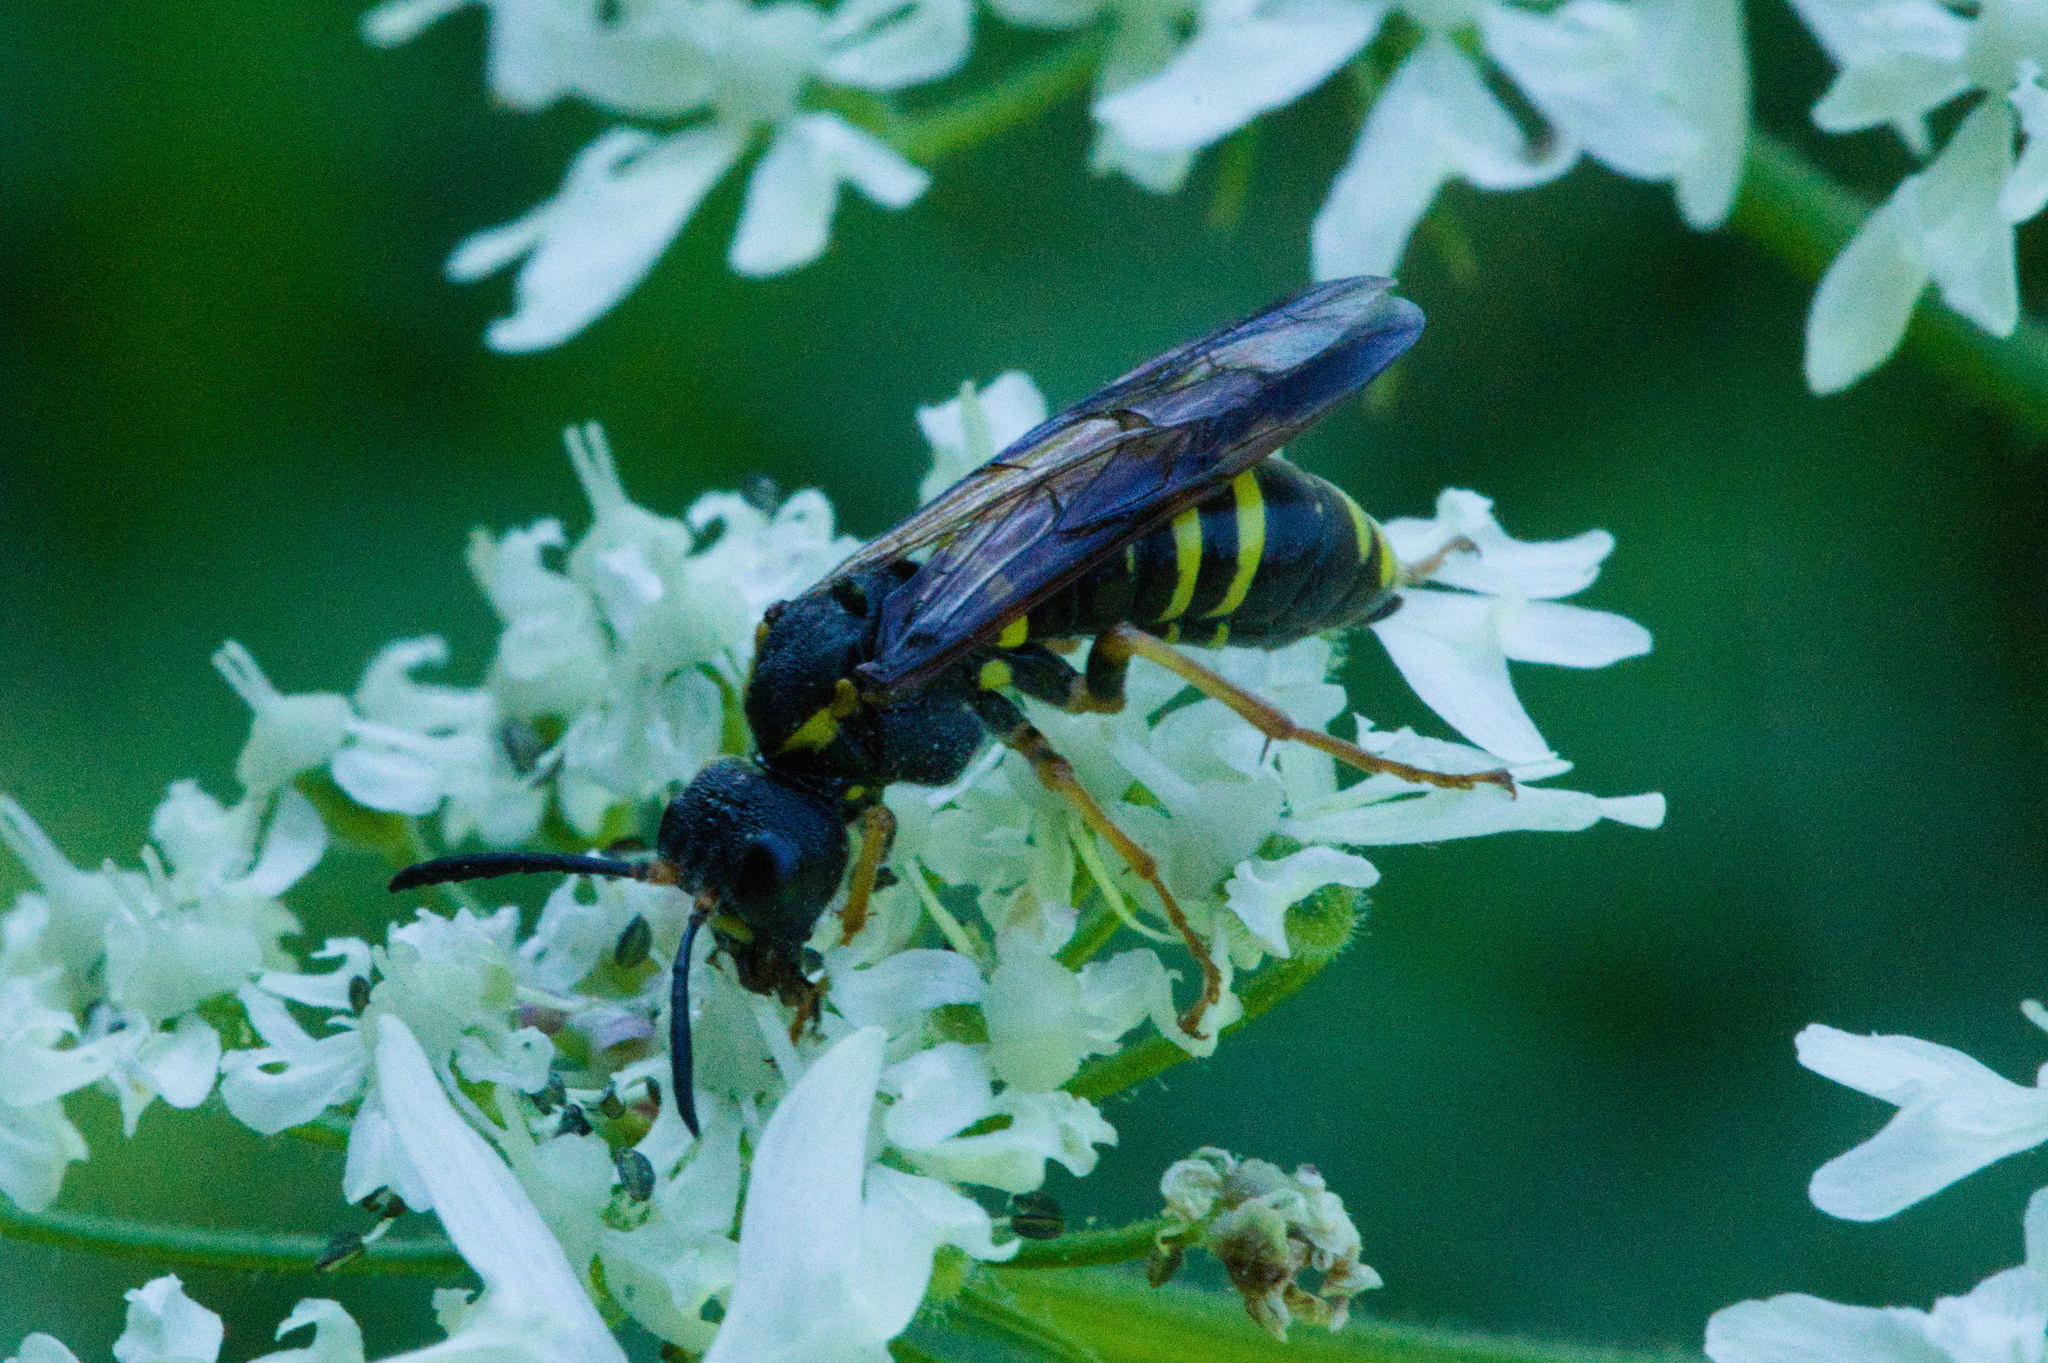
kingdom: Animalia
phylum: Arthropoda
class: Insecta
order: Hymenoptera
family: Tenthredinidae
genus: Tenthredo
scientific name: Tenthredo vespa
